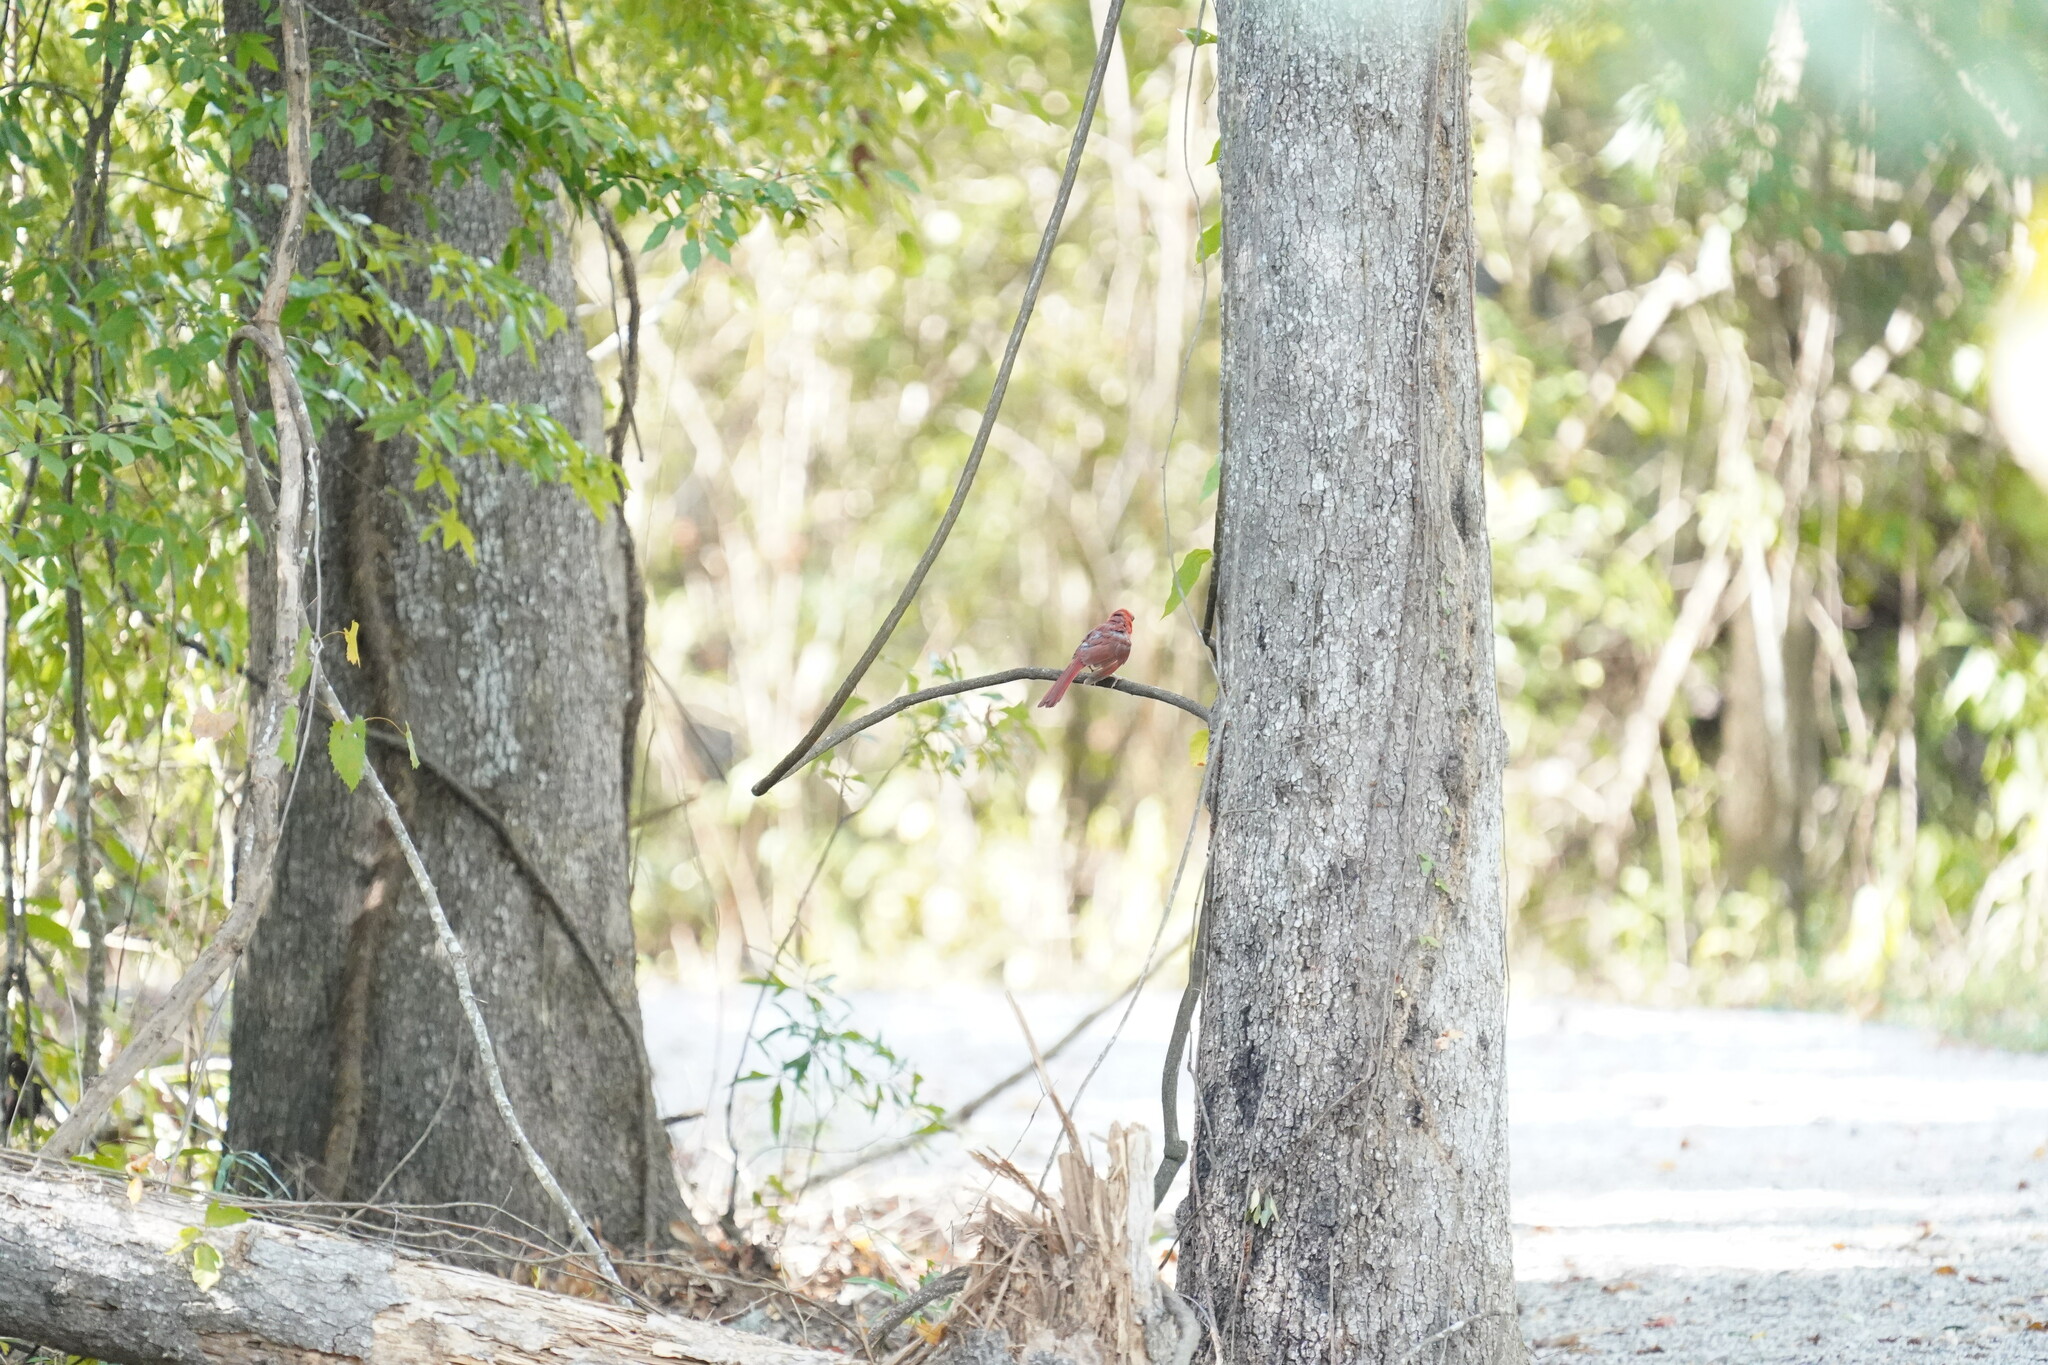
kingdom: Animalia
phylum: Chordata
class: Aves
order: Passeriformes
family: Cardinalidae
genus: Cardinalis
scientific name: Cardinalis cardinalis
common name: Northern cardinal
